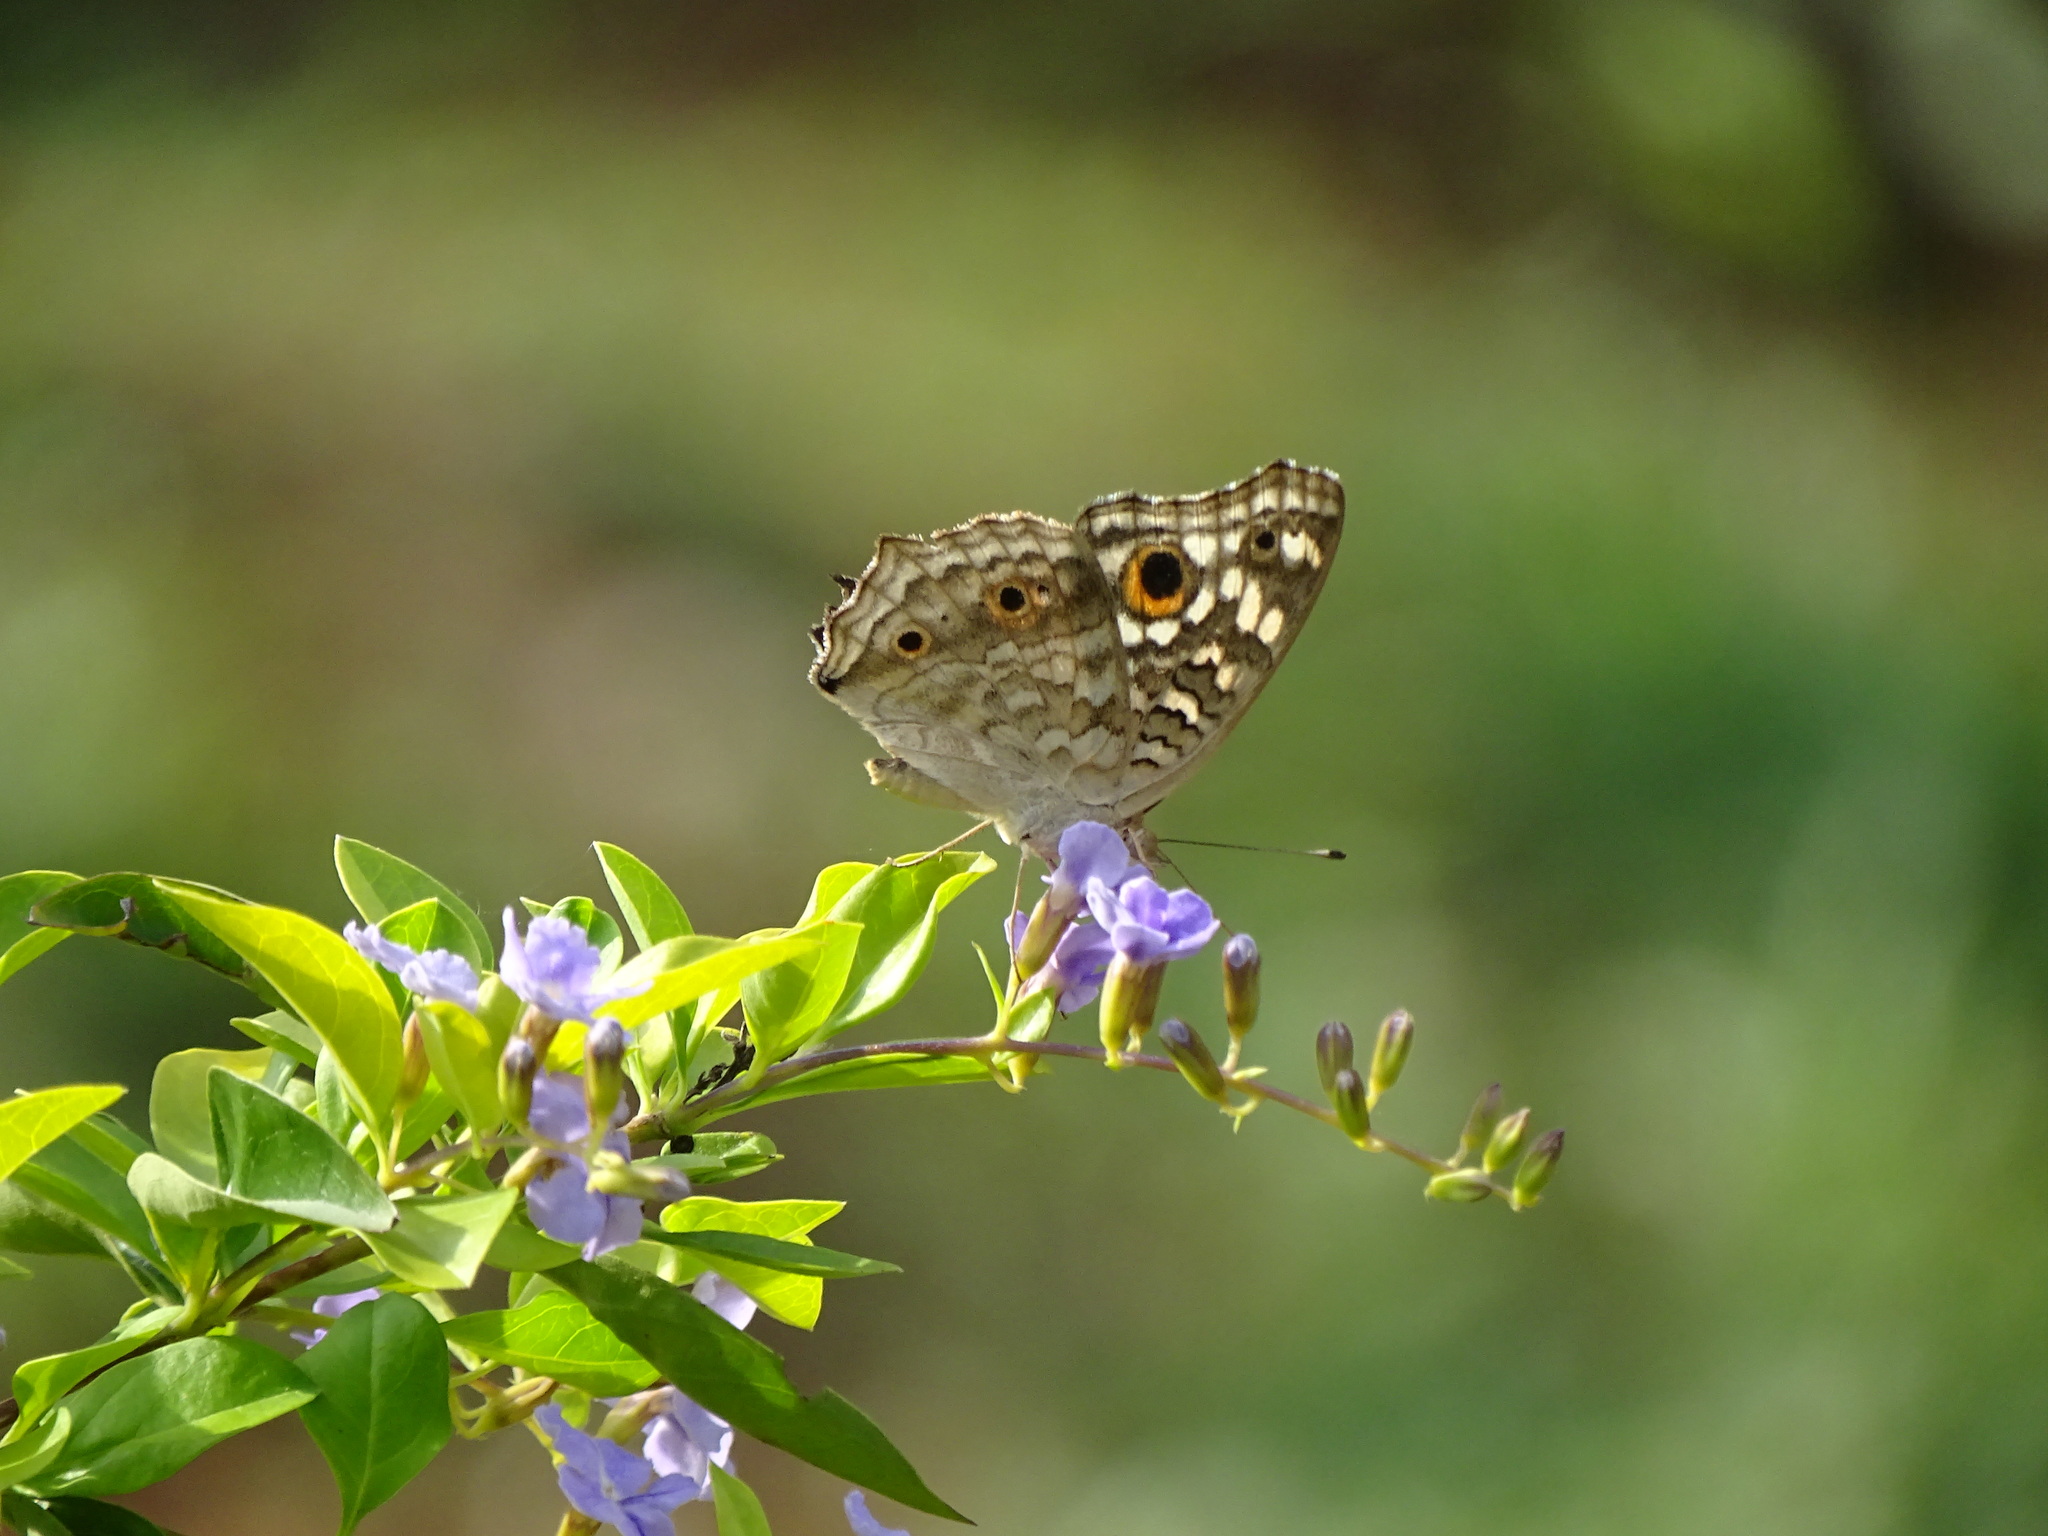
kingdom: Animalia
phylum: Arthropoda
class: Insecta
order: Lepidoptera
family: Nymphalidae
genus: Junonia
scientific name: Junonia lemonias
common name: Lemon pansy
